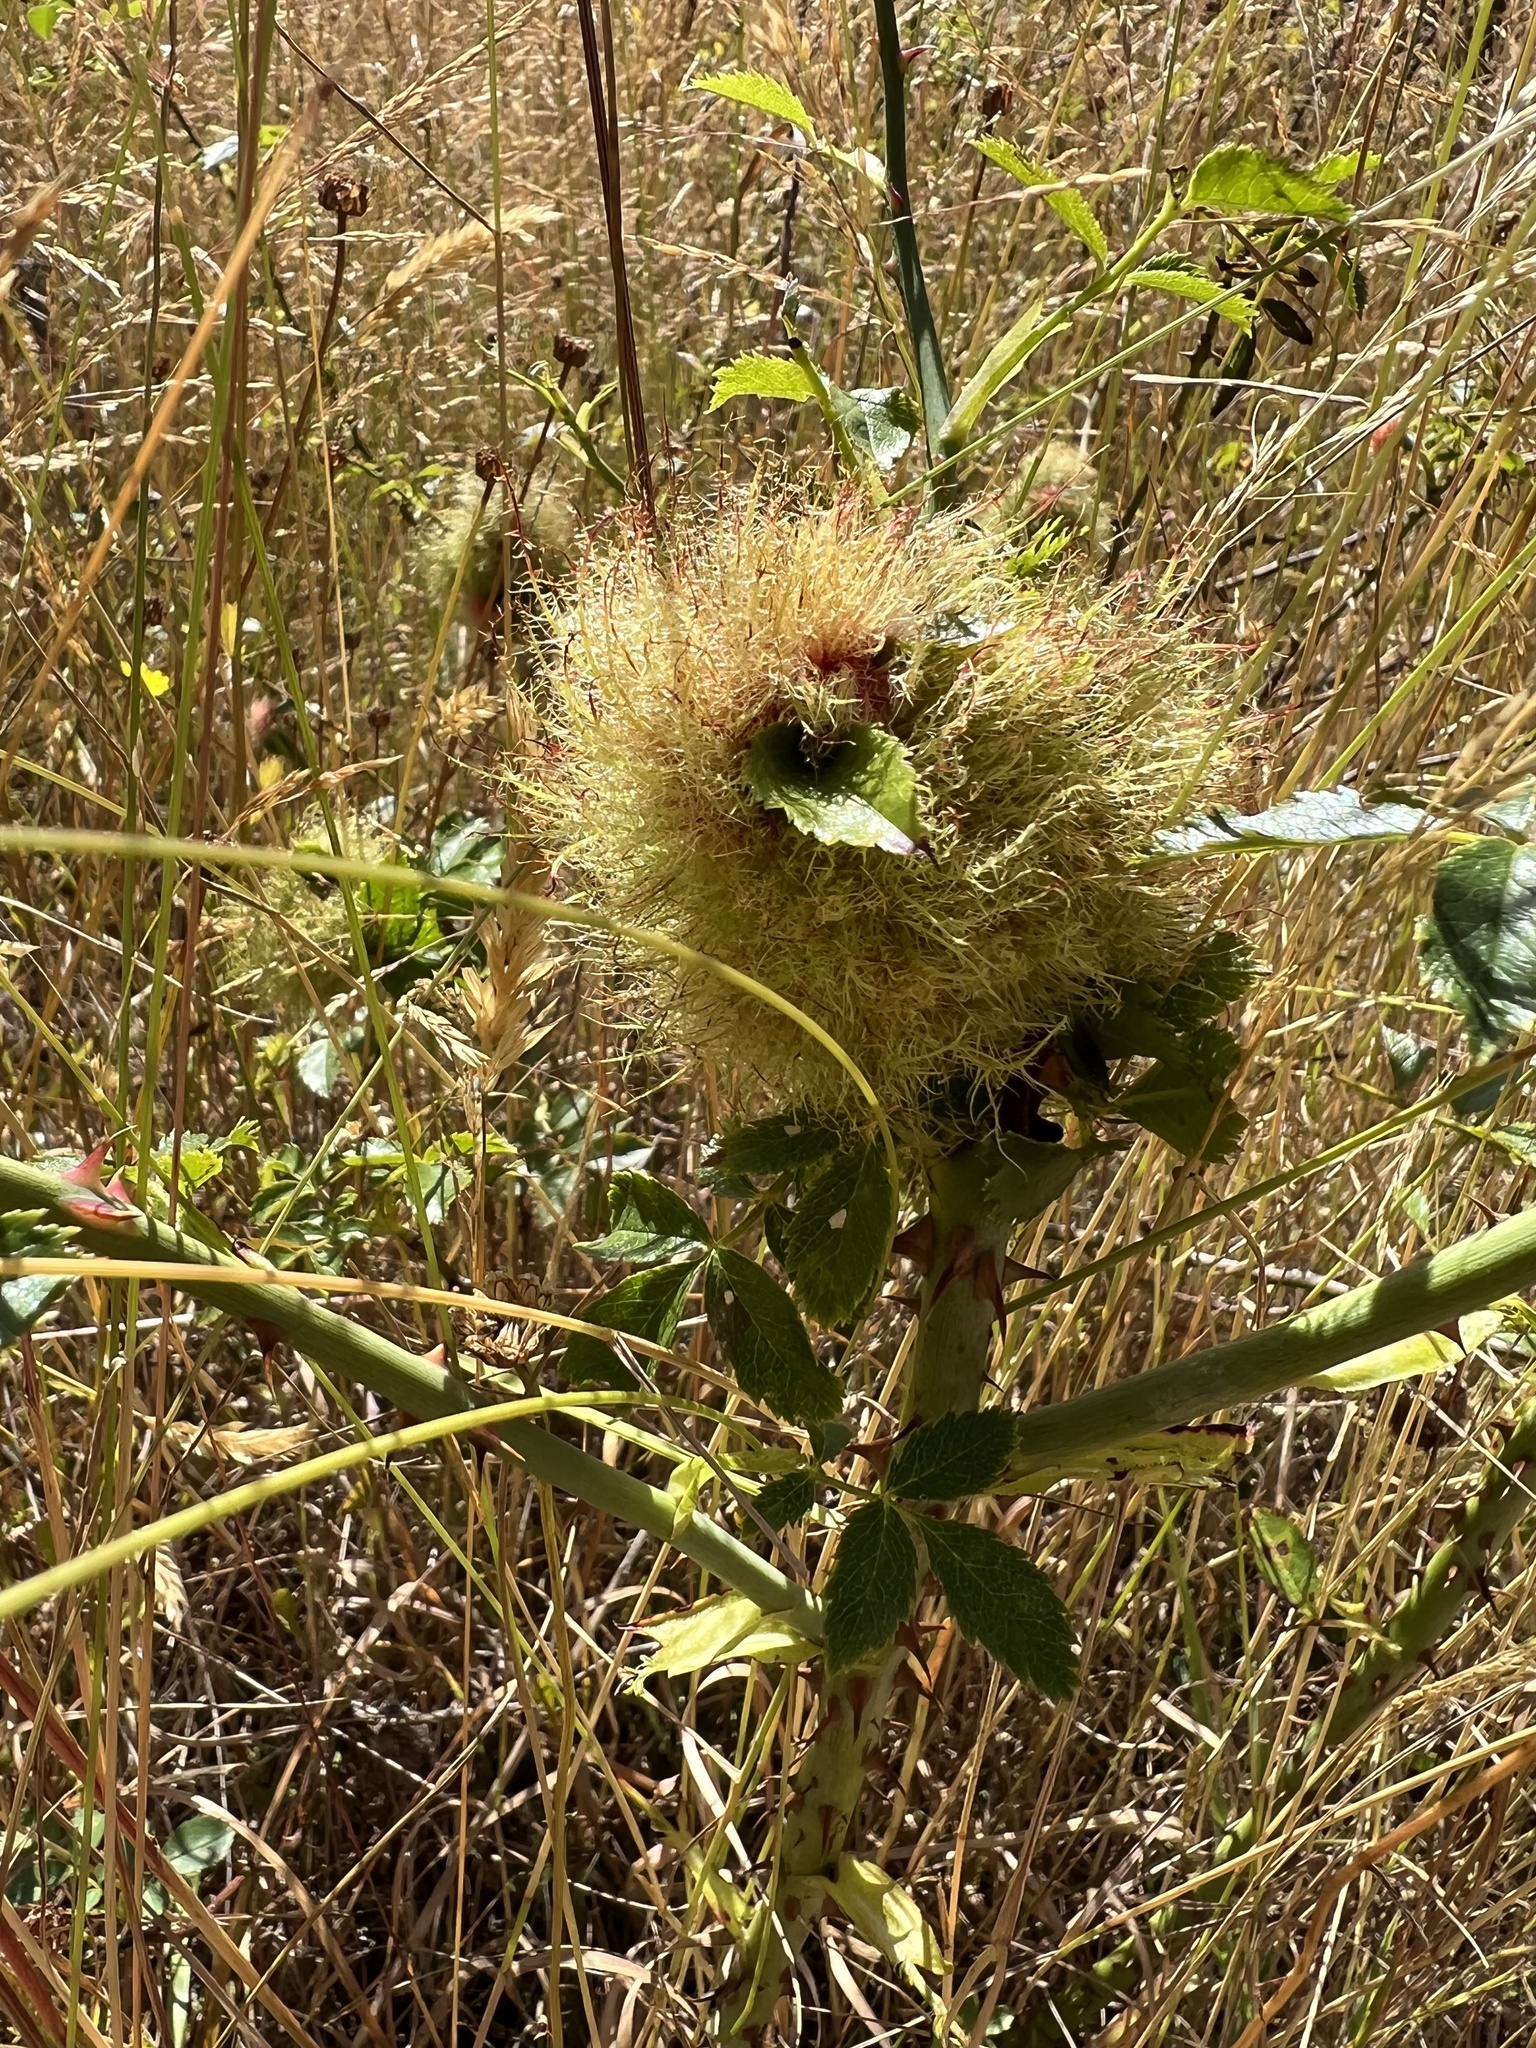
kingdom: Animalia
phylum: Arthropoda
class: Insecta
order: Hymenoptera
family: Cynipidae
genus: Diplolepis
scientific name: Diplolepis rosae
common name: Bedeguar gall
